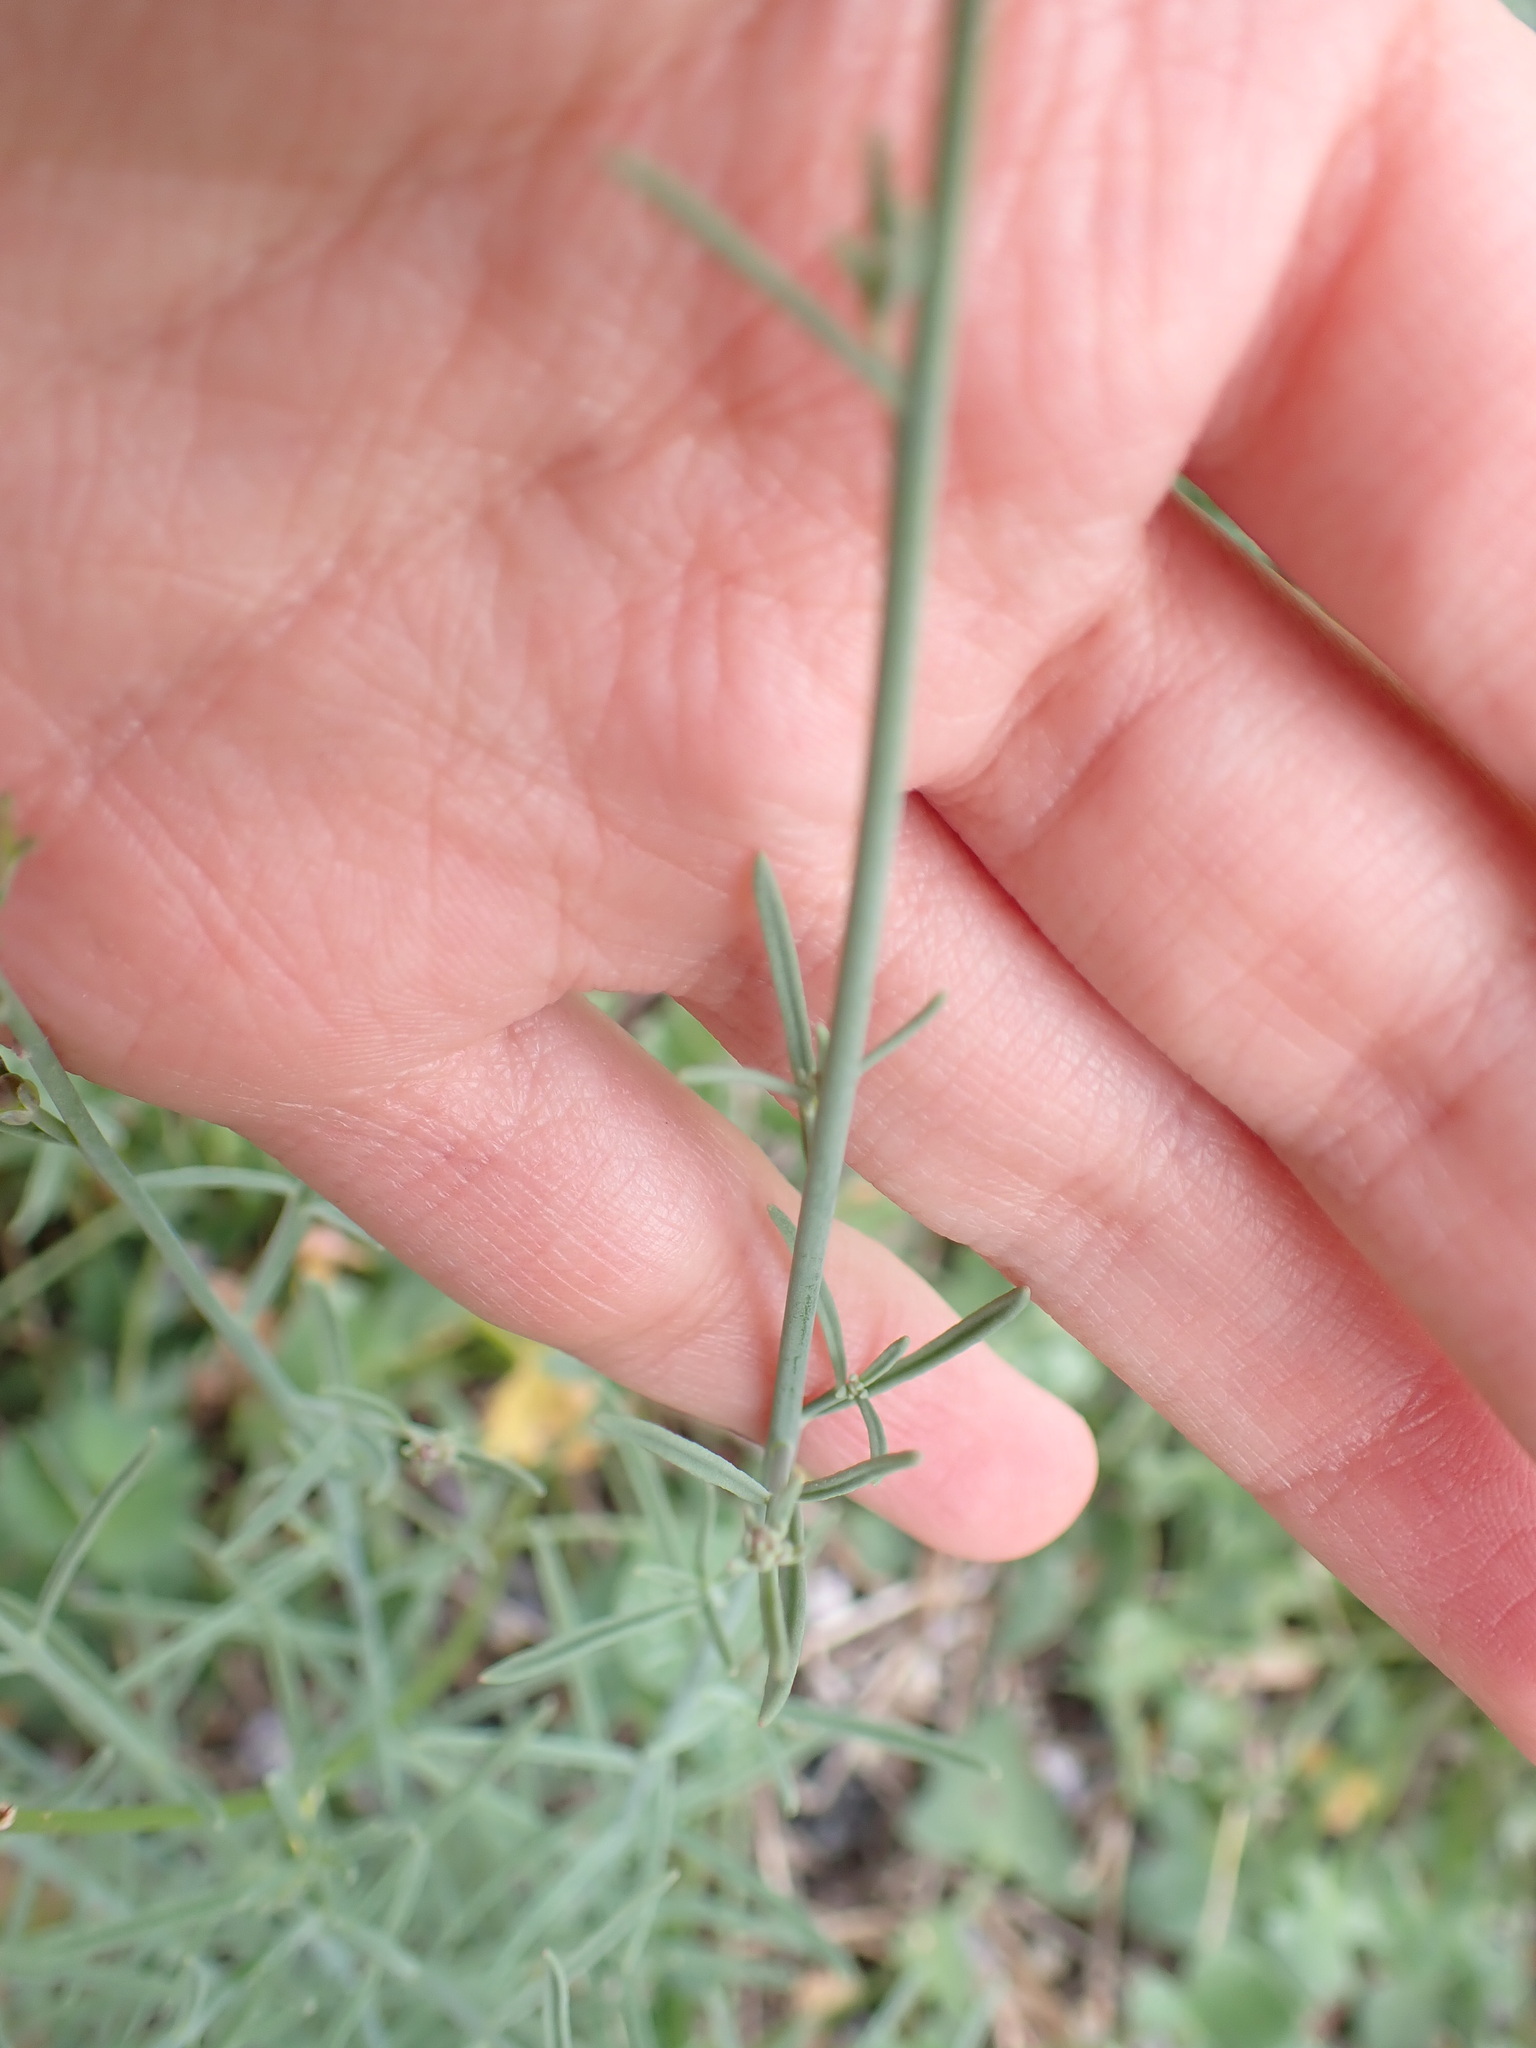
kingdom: Plantae
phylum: Tracheophyta
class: Magnoliopsida
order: Lamiales
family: Plantaginaceae
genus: Linaria
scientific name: Linaria repens
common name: Pale toadflax
